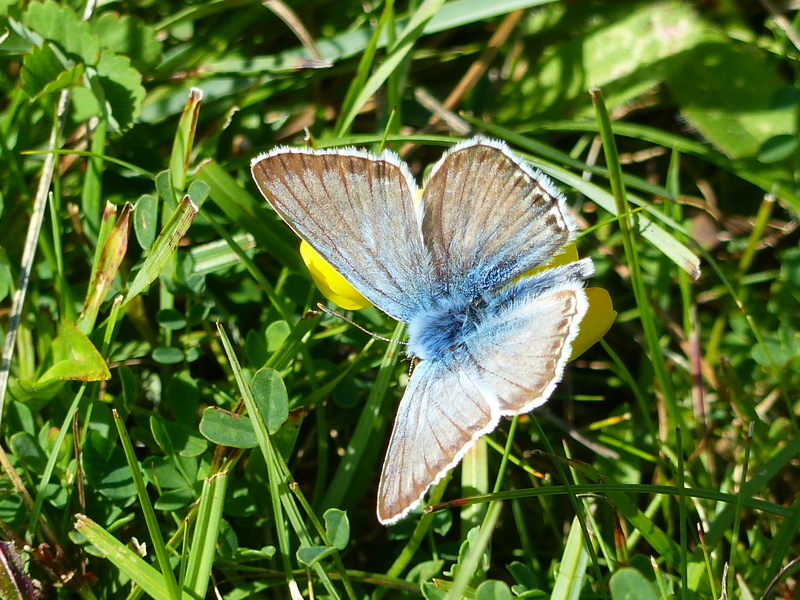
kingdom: Animalia
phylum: Arthropoda
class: Insecta
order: Lepidoptera
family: Lycaenidae
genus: Lysandra
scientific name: Lysandra coridon
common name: Chalkhill blue
